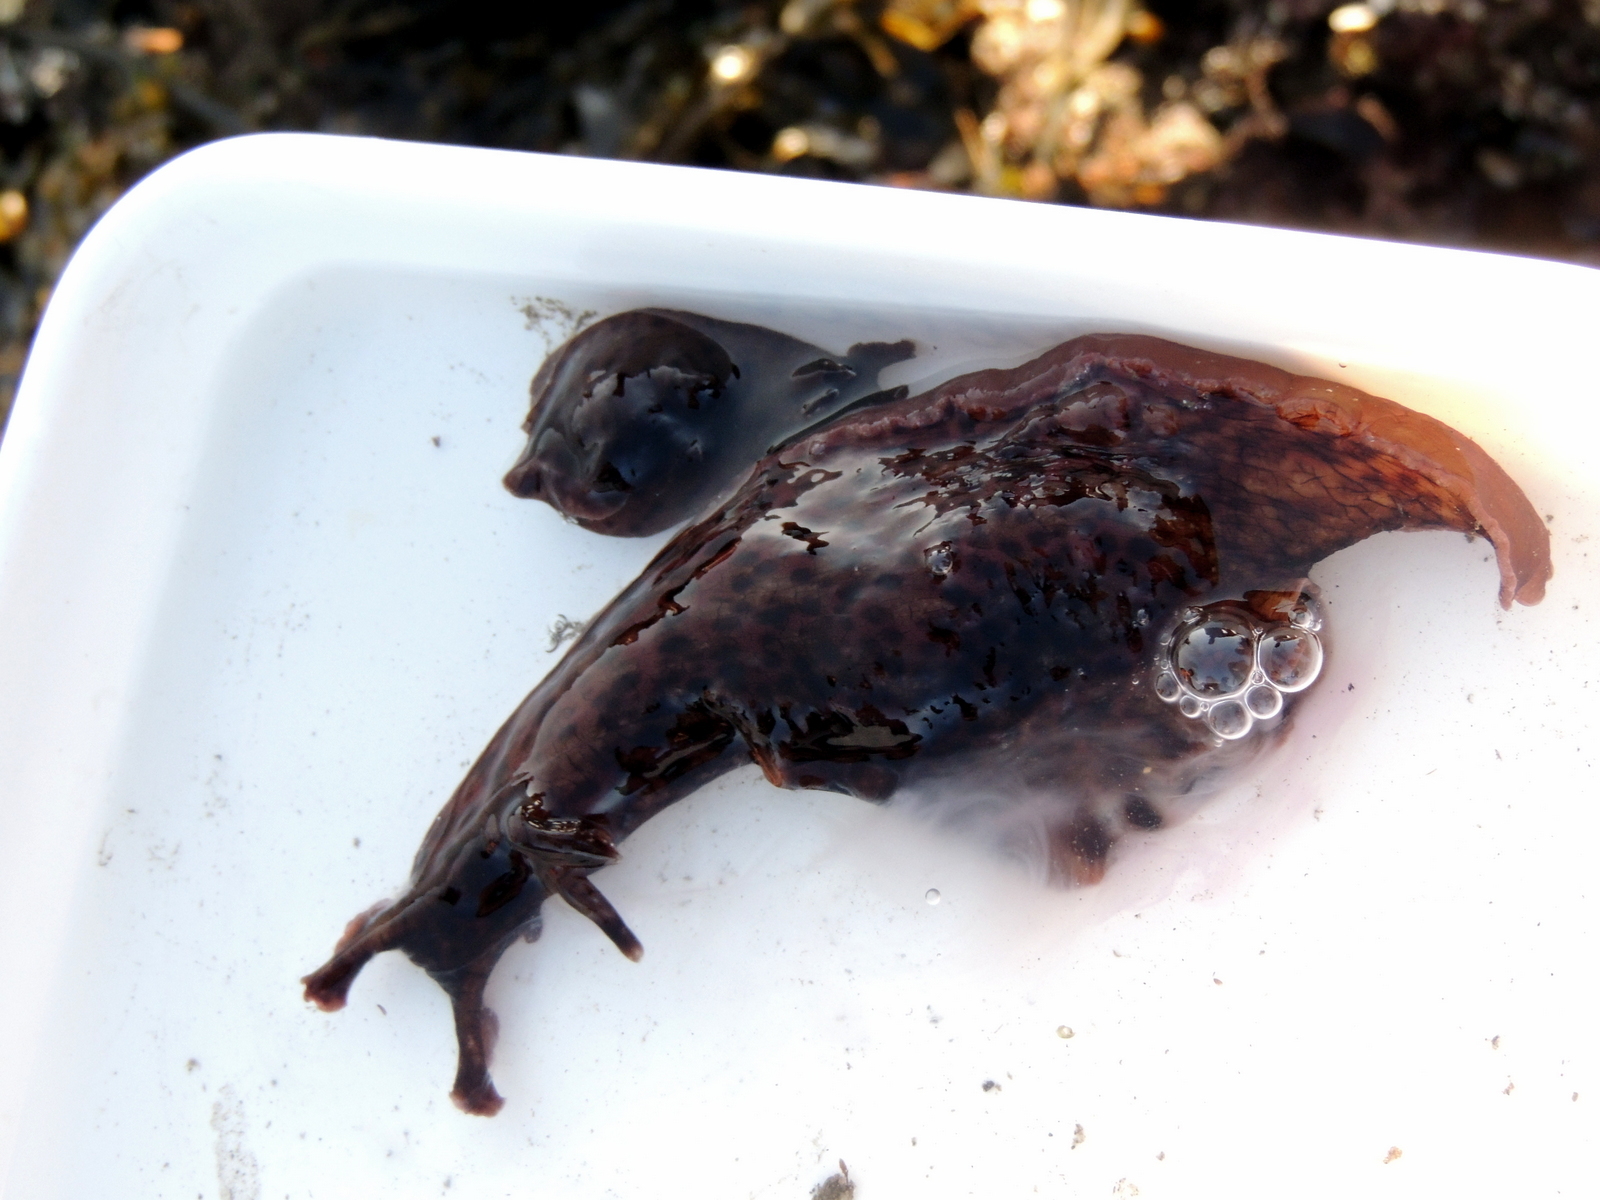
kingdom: Animalia
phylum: Mollusca
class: Gastropoda
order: Aplysiida
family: Aplysiidae
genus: Aplysia
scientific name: Aplysia californica
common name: California seahare
